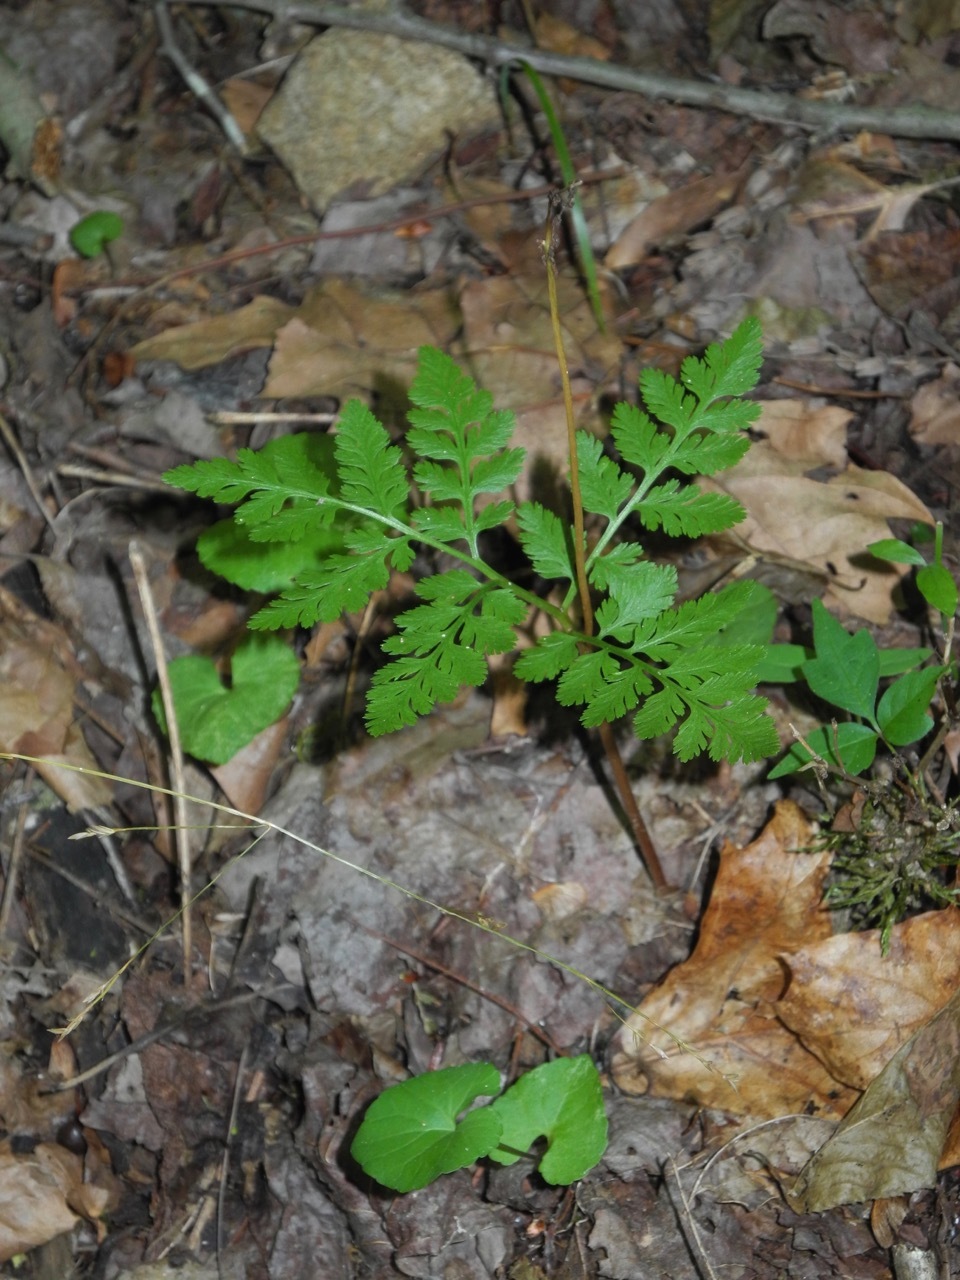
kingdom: Plantae
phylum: Tracheophyta
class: Polypodiopsida
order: Ophioglossales
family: Ophioglossaceae
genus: Botrypus
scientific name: Botrypus virginianus
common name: Common grapefern
